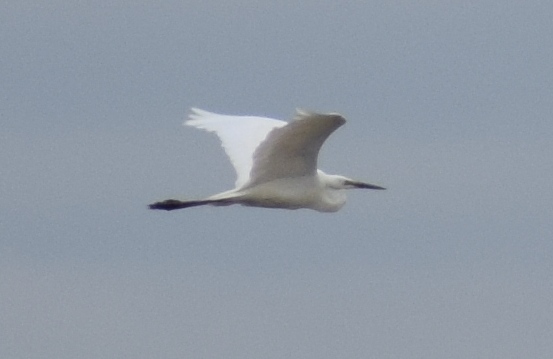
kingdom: Animalia
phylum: Chordata
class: Aves
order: Pelecaniformes
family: Ardeidae
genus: Ardea
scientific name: Ardea alba
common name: Great egret
